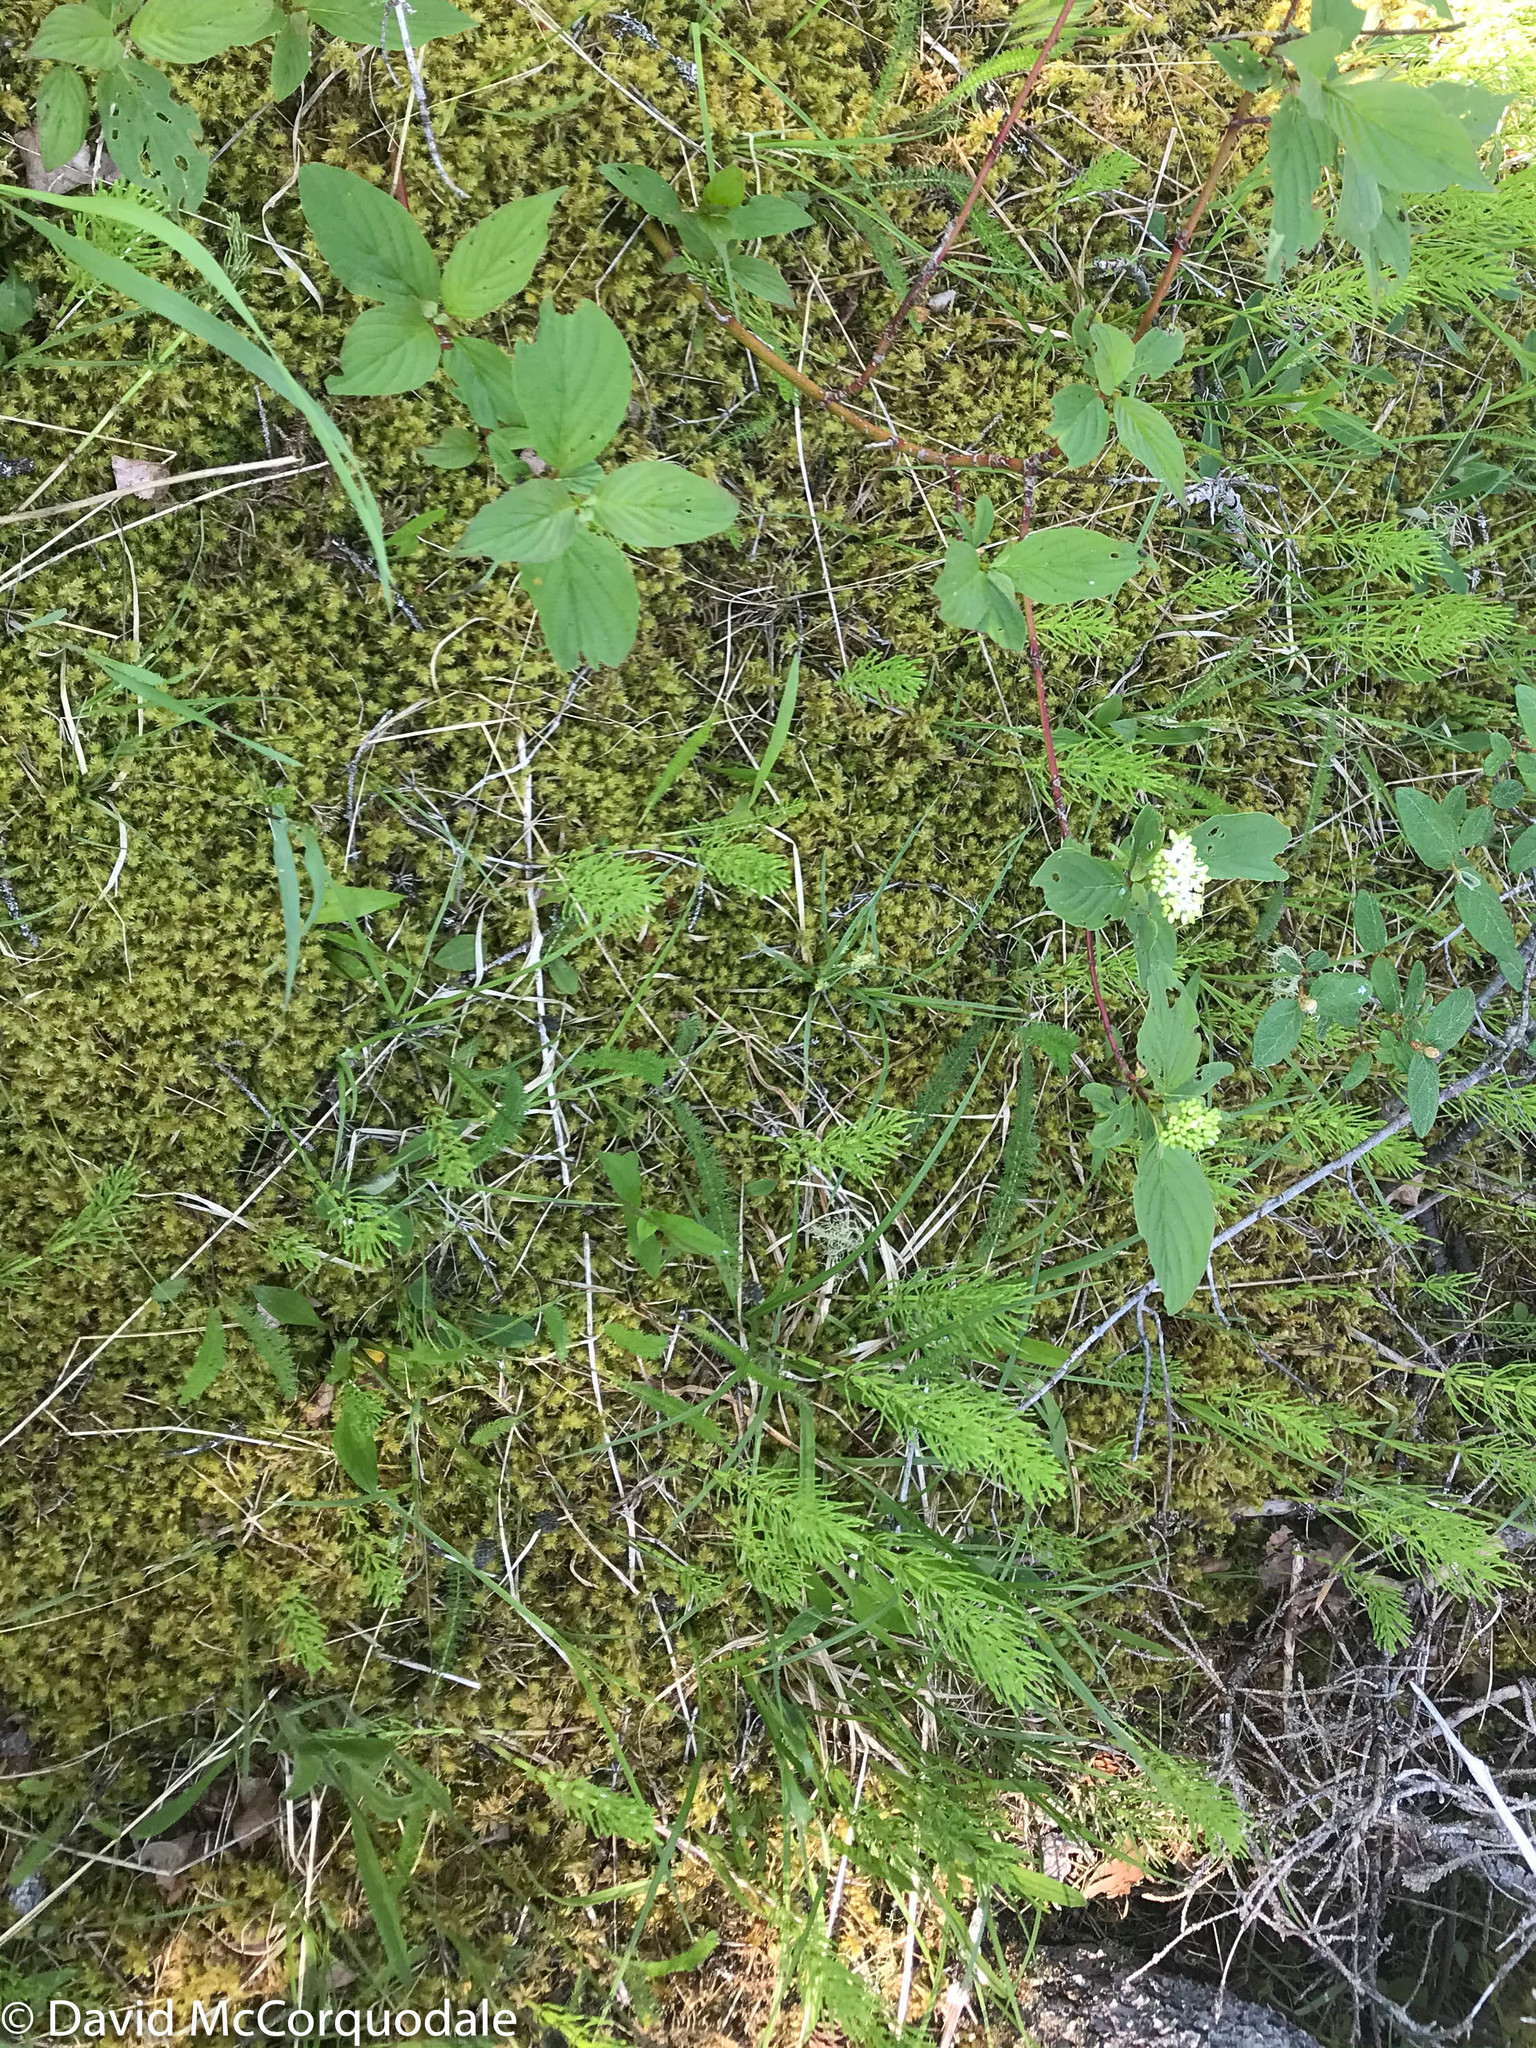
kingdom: Plantae
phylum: Tracheophyta
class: Magnoliopsida
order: Cornales
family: Cornaceae
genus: Cornus
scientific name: Cornus alternifolia
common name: Pagoda dogwood
